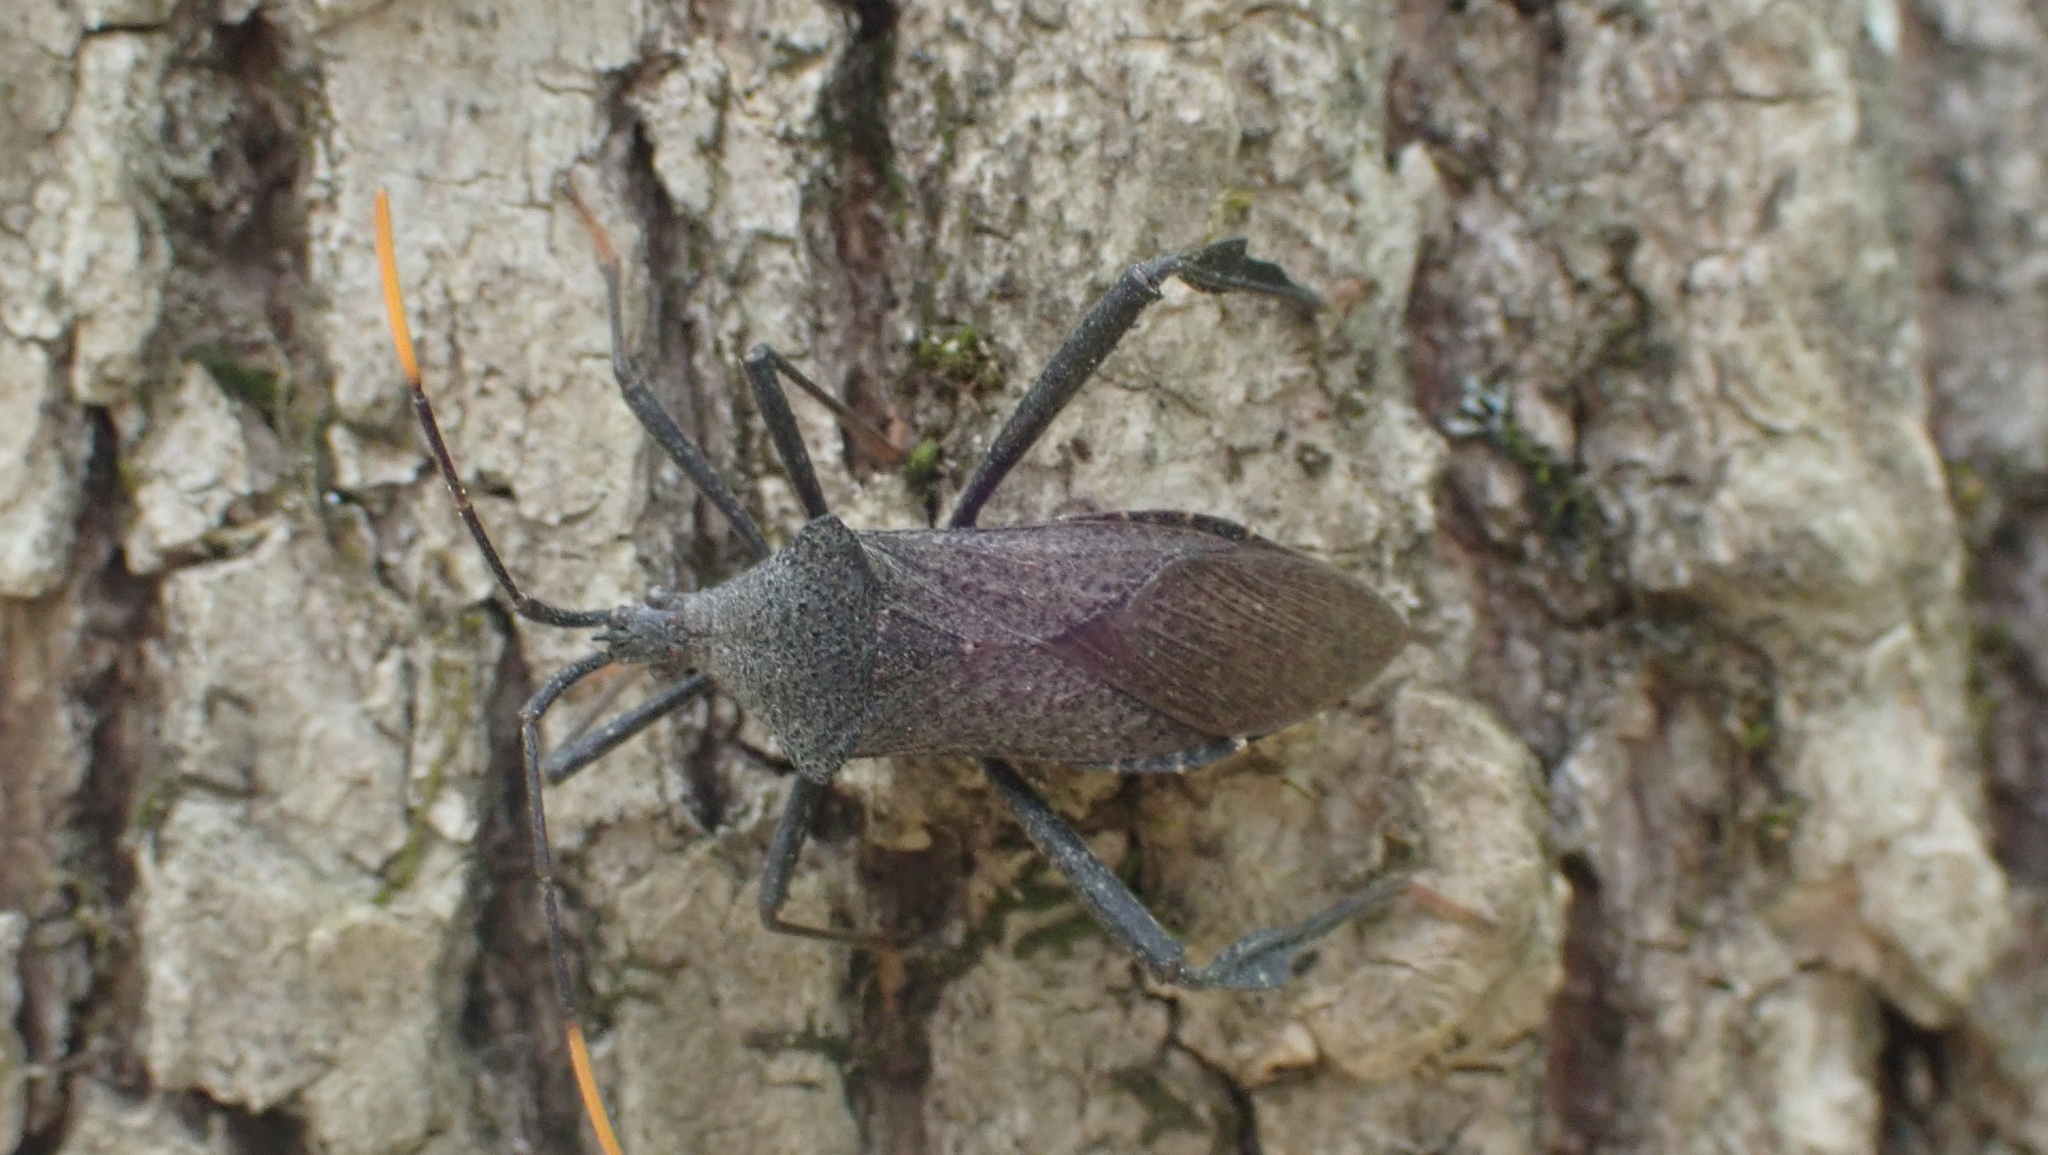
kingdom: Animalia
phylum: Arthropoda
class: Insecta
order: Hemiptera
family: Coreidae
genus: Acanthocephala
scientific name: Acanthocephala terminalis
